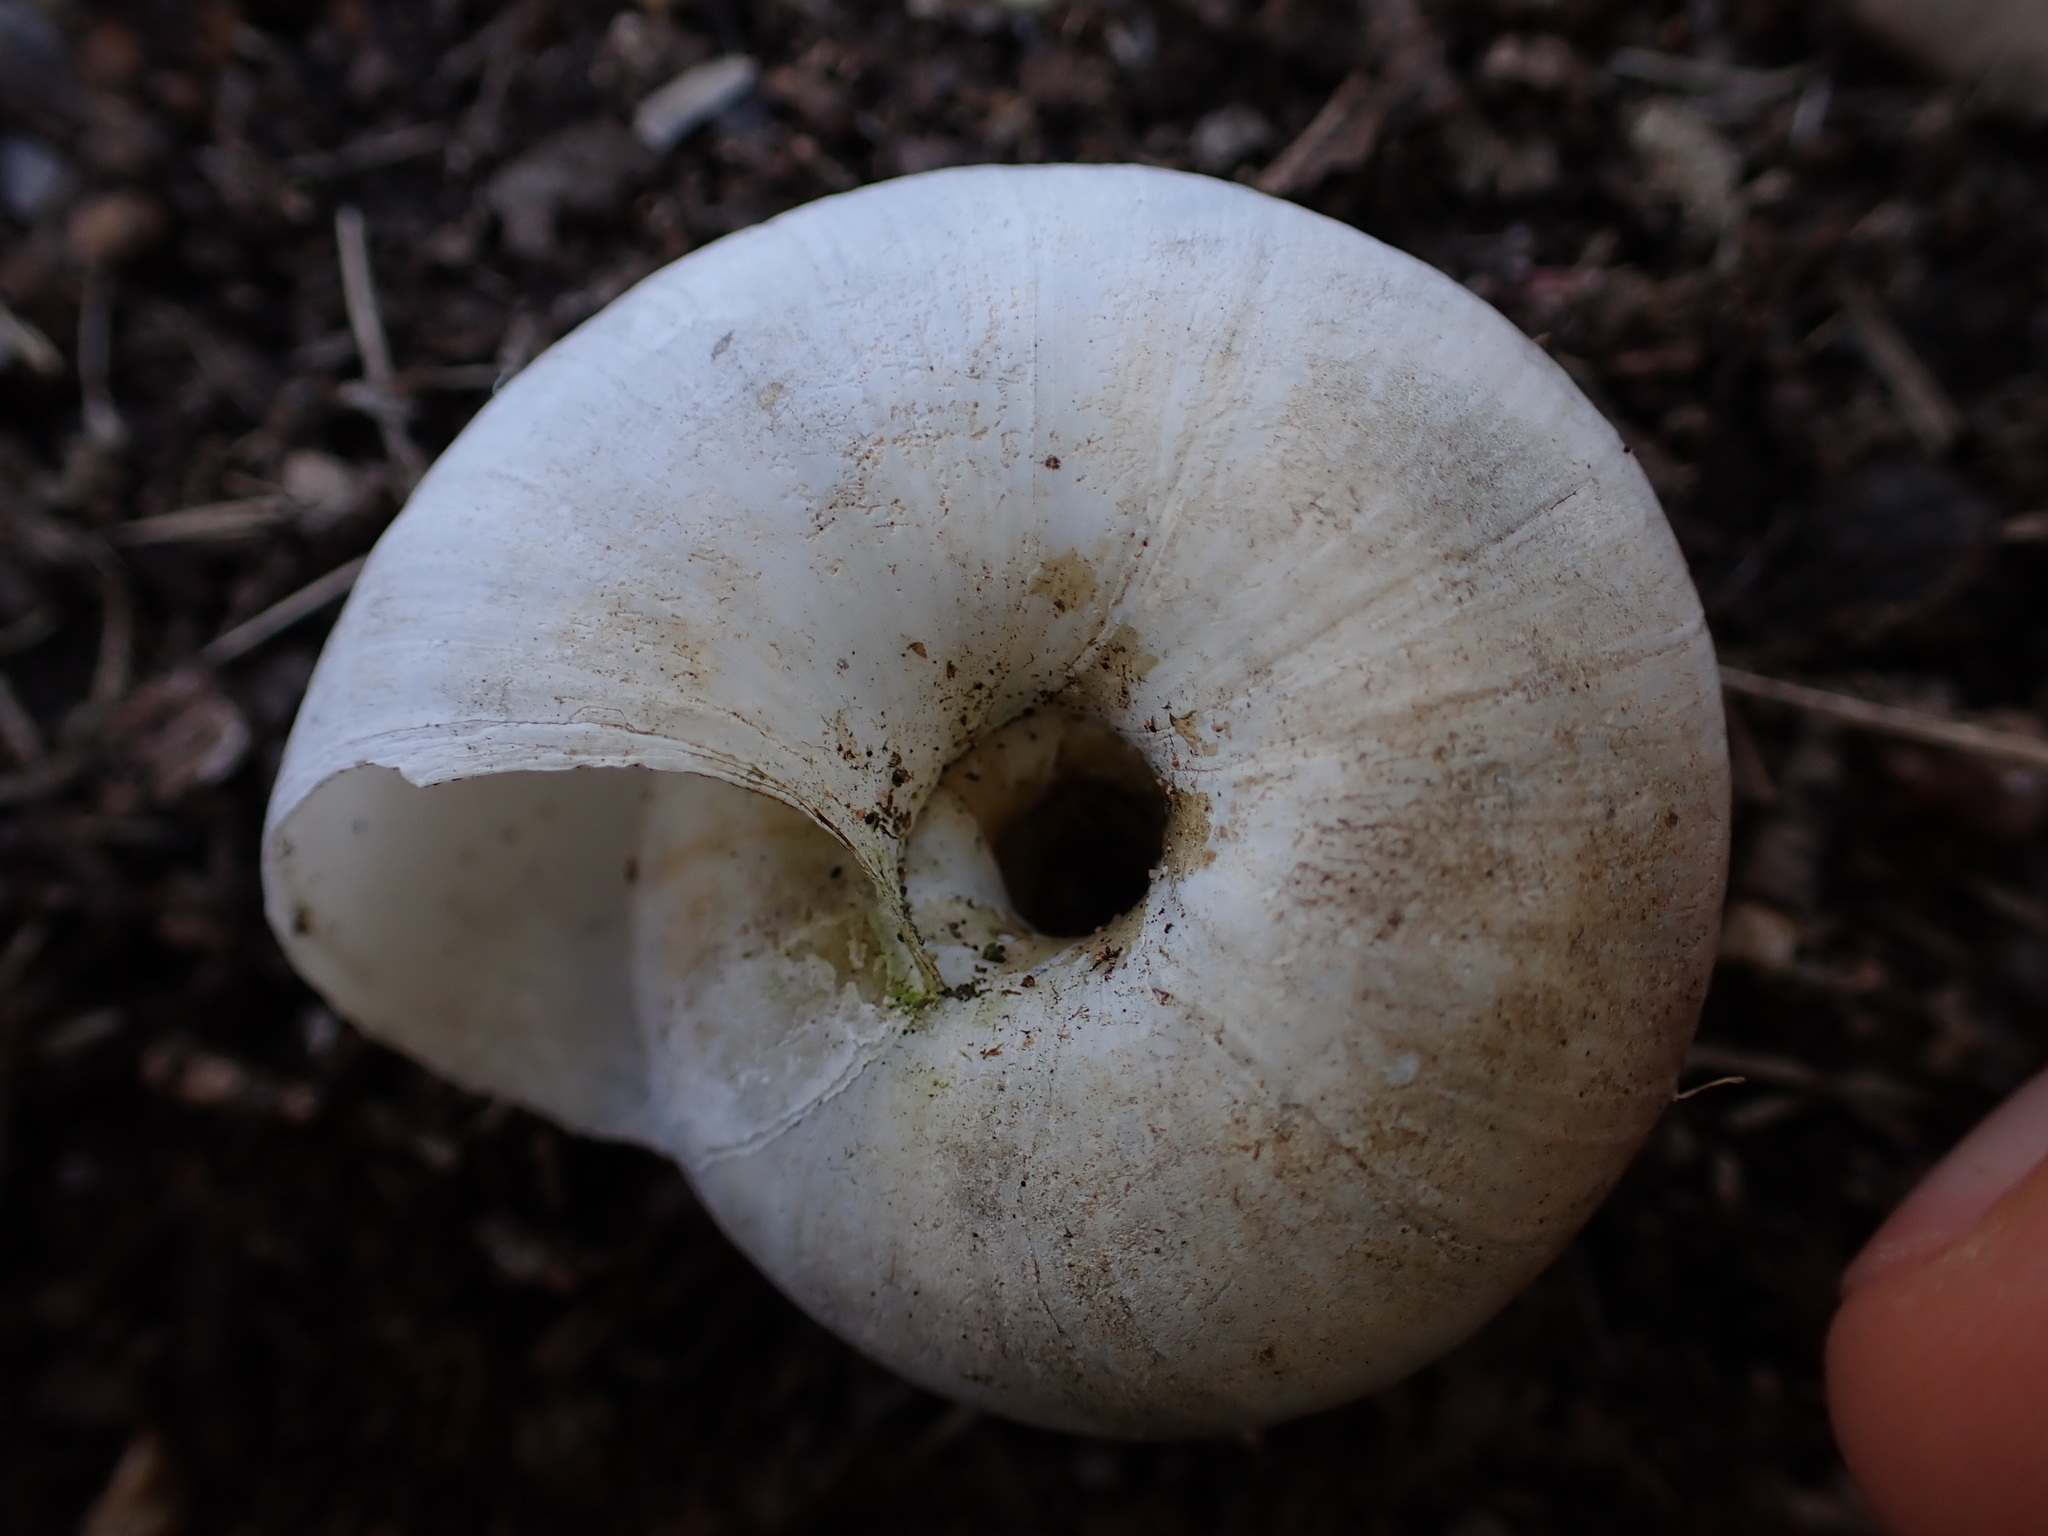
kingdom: Animalia
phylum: Mollusca
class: Gastropoda
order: Stylommatophora
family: Zonitidae
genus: Zonites
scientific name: Zonites algirus
